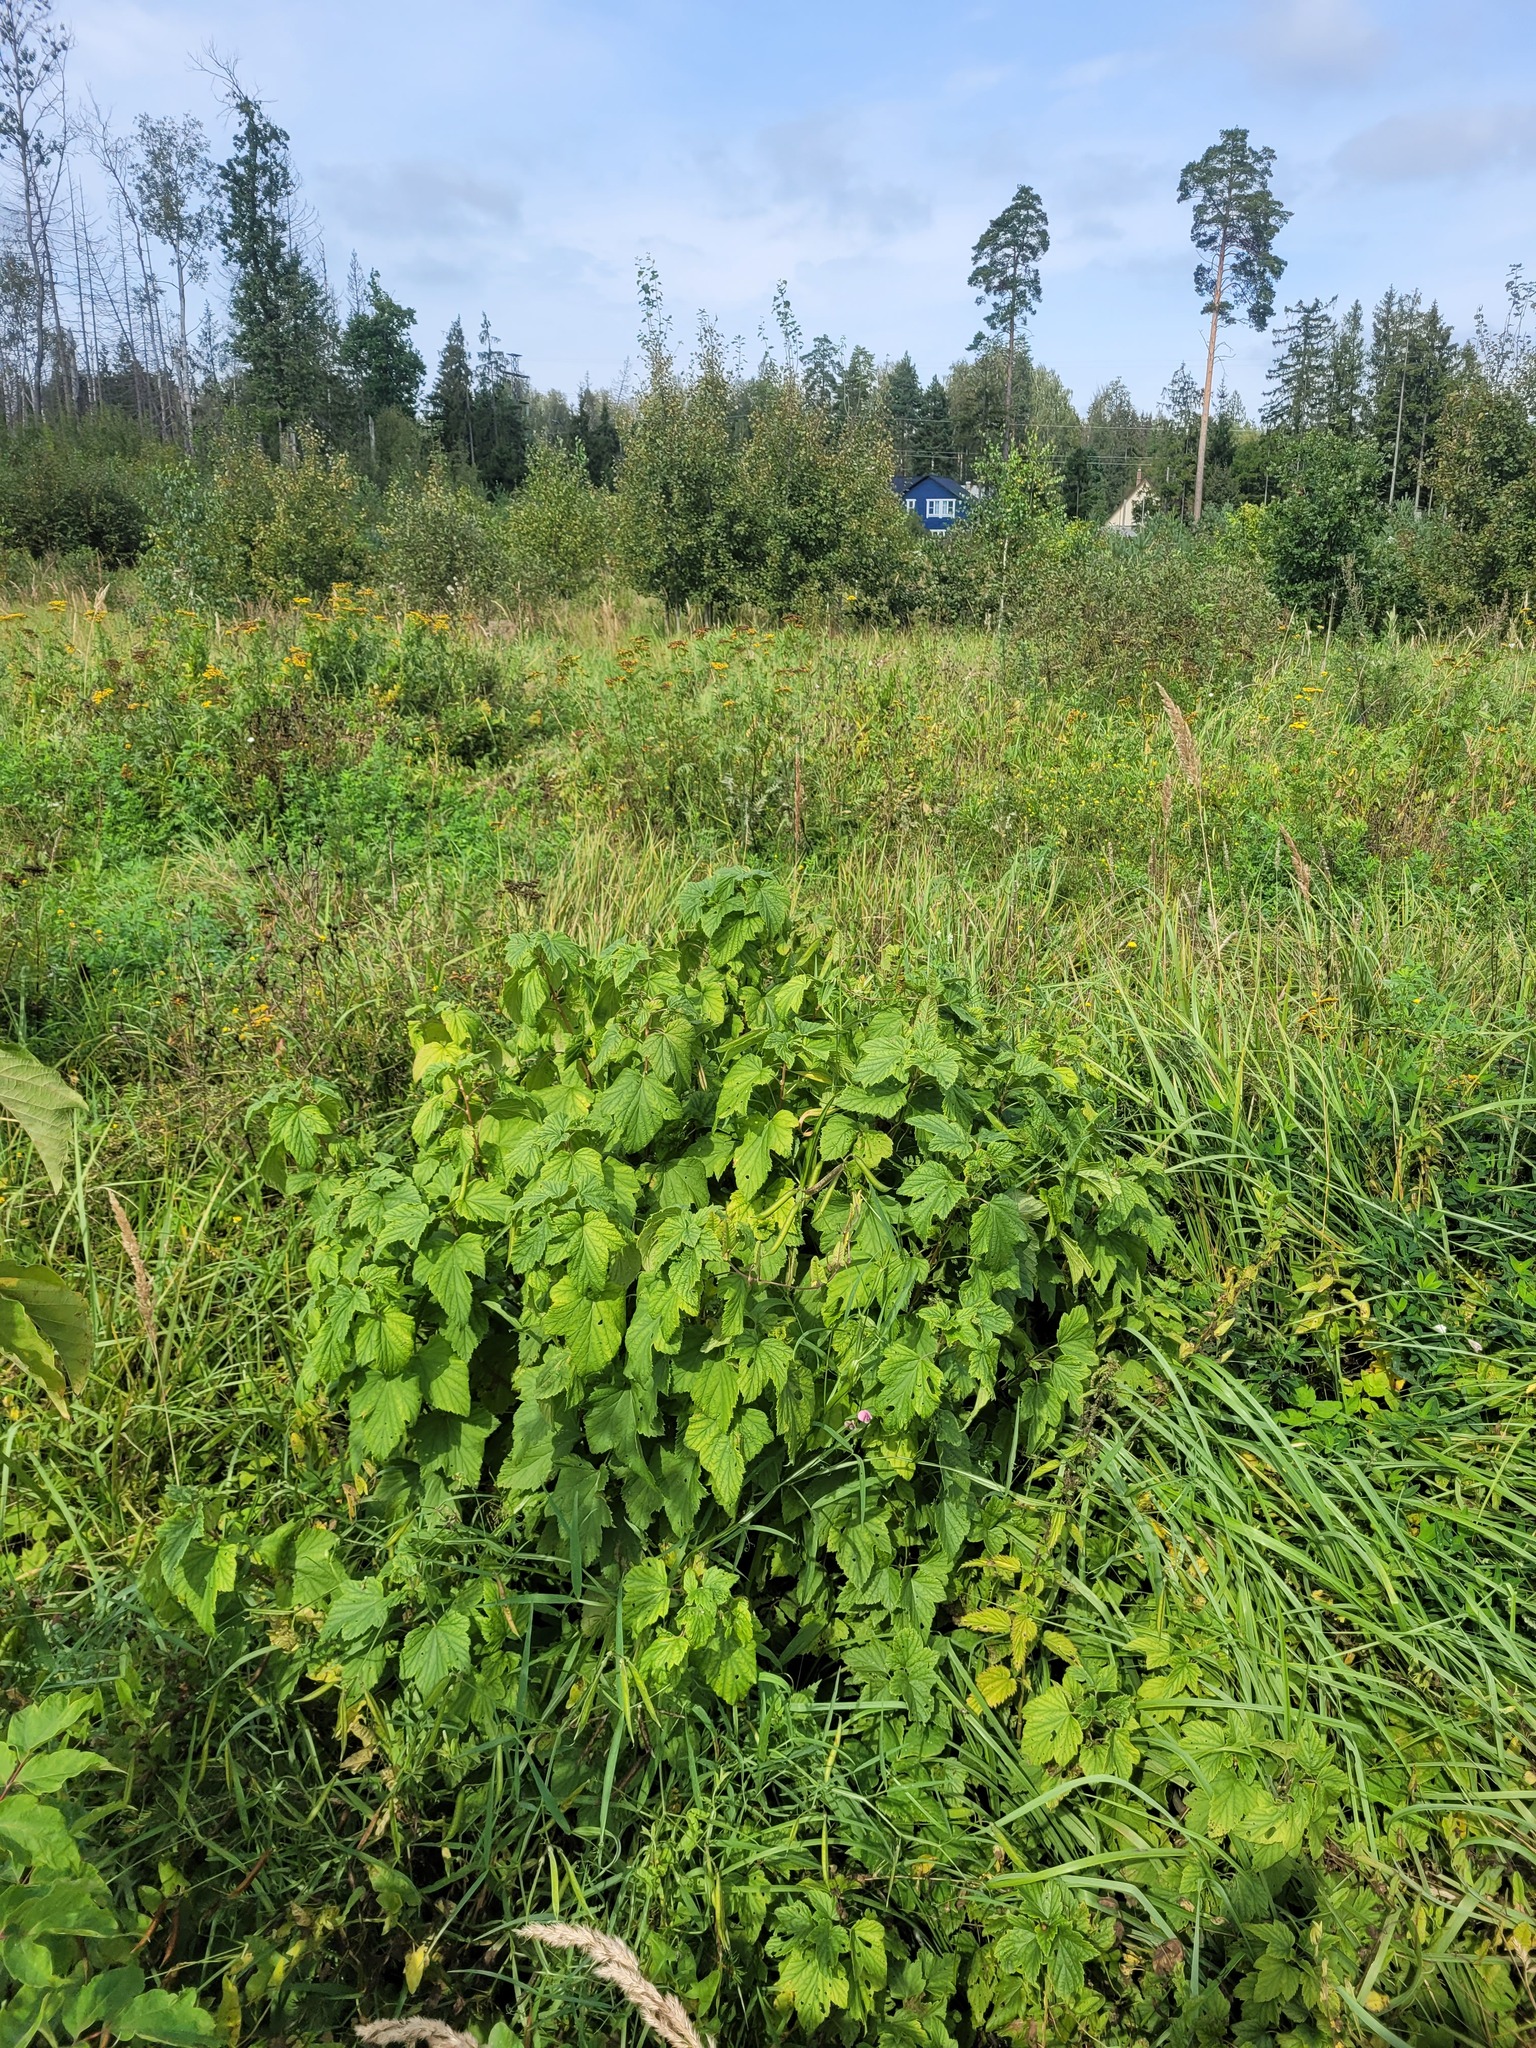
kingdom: Plantae
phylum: Tracheophyta
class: Magnoliopsida
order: Saxifragales
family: Grossulariaceae
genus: Ribes
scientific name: Ribes nigrum
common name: Black currant
